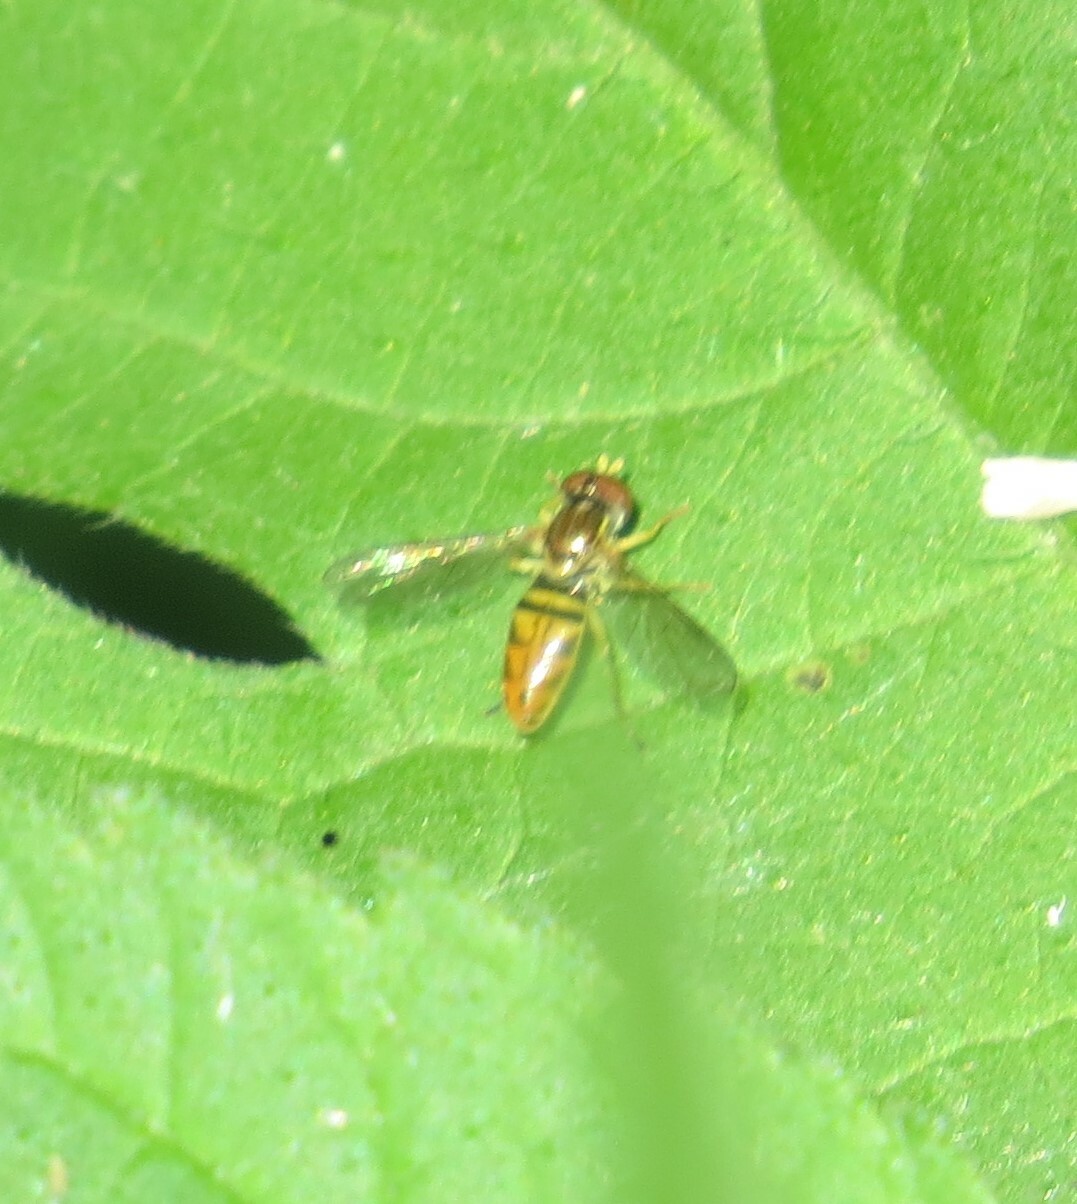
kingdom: Animalia
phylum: Arthropoda
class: Insecta
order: Diptera
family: Syrphidae
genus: Toxomerus
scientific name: Toxomerus marginatus
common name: Syrphid fly
